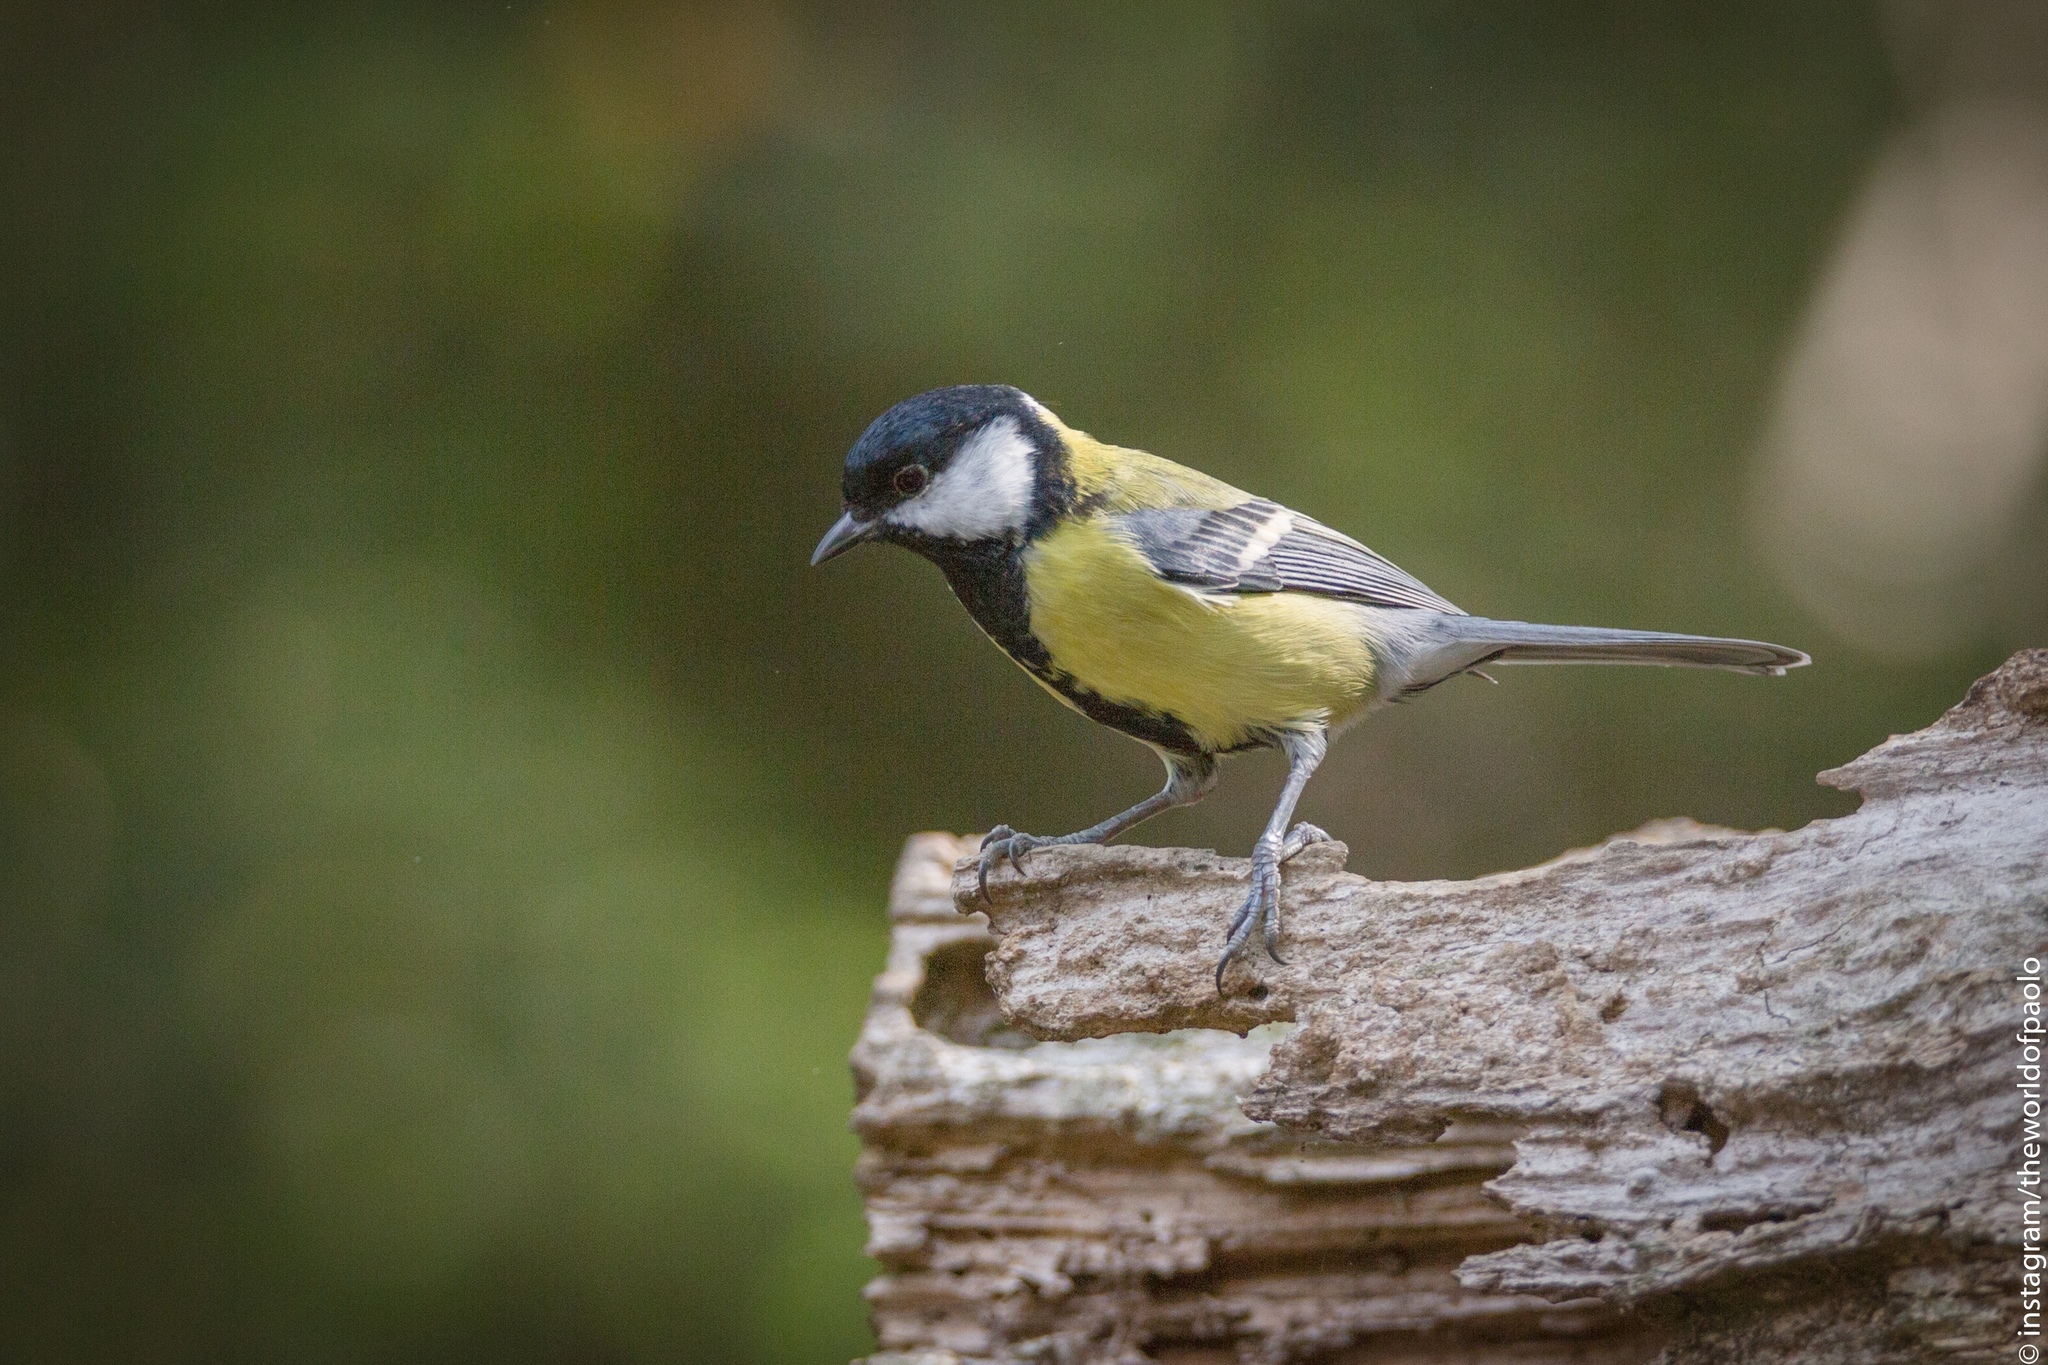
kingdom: Animalia
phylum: Chordata
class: Aves
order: Passeriformes
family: Paridae
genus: Parus
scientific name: Parus major
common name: Great tit
